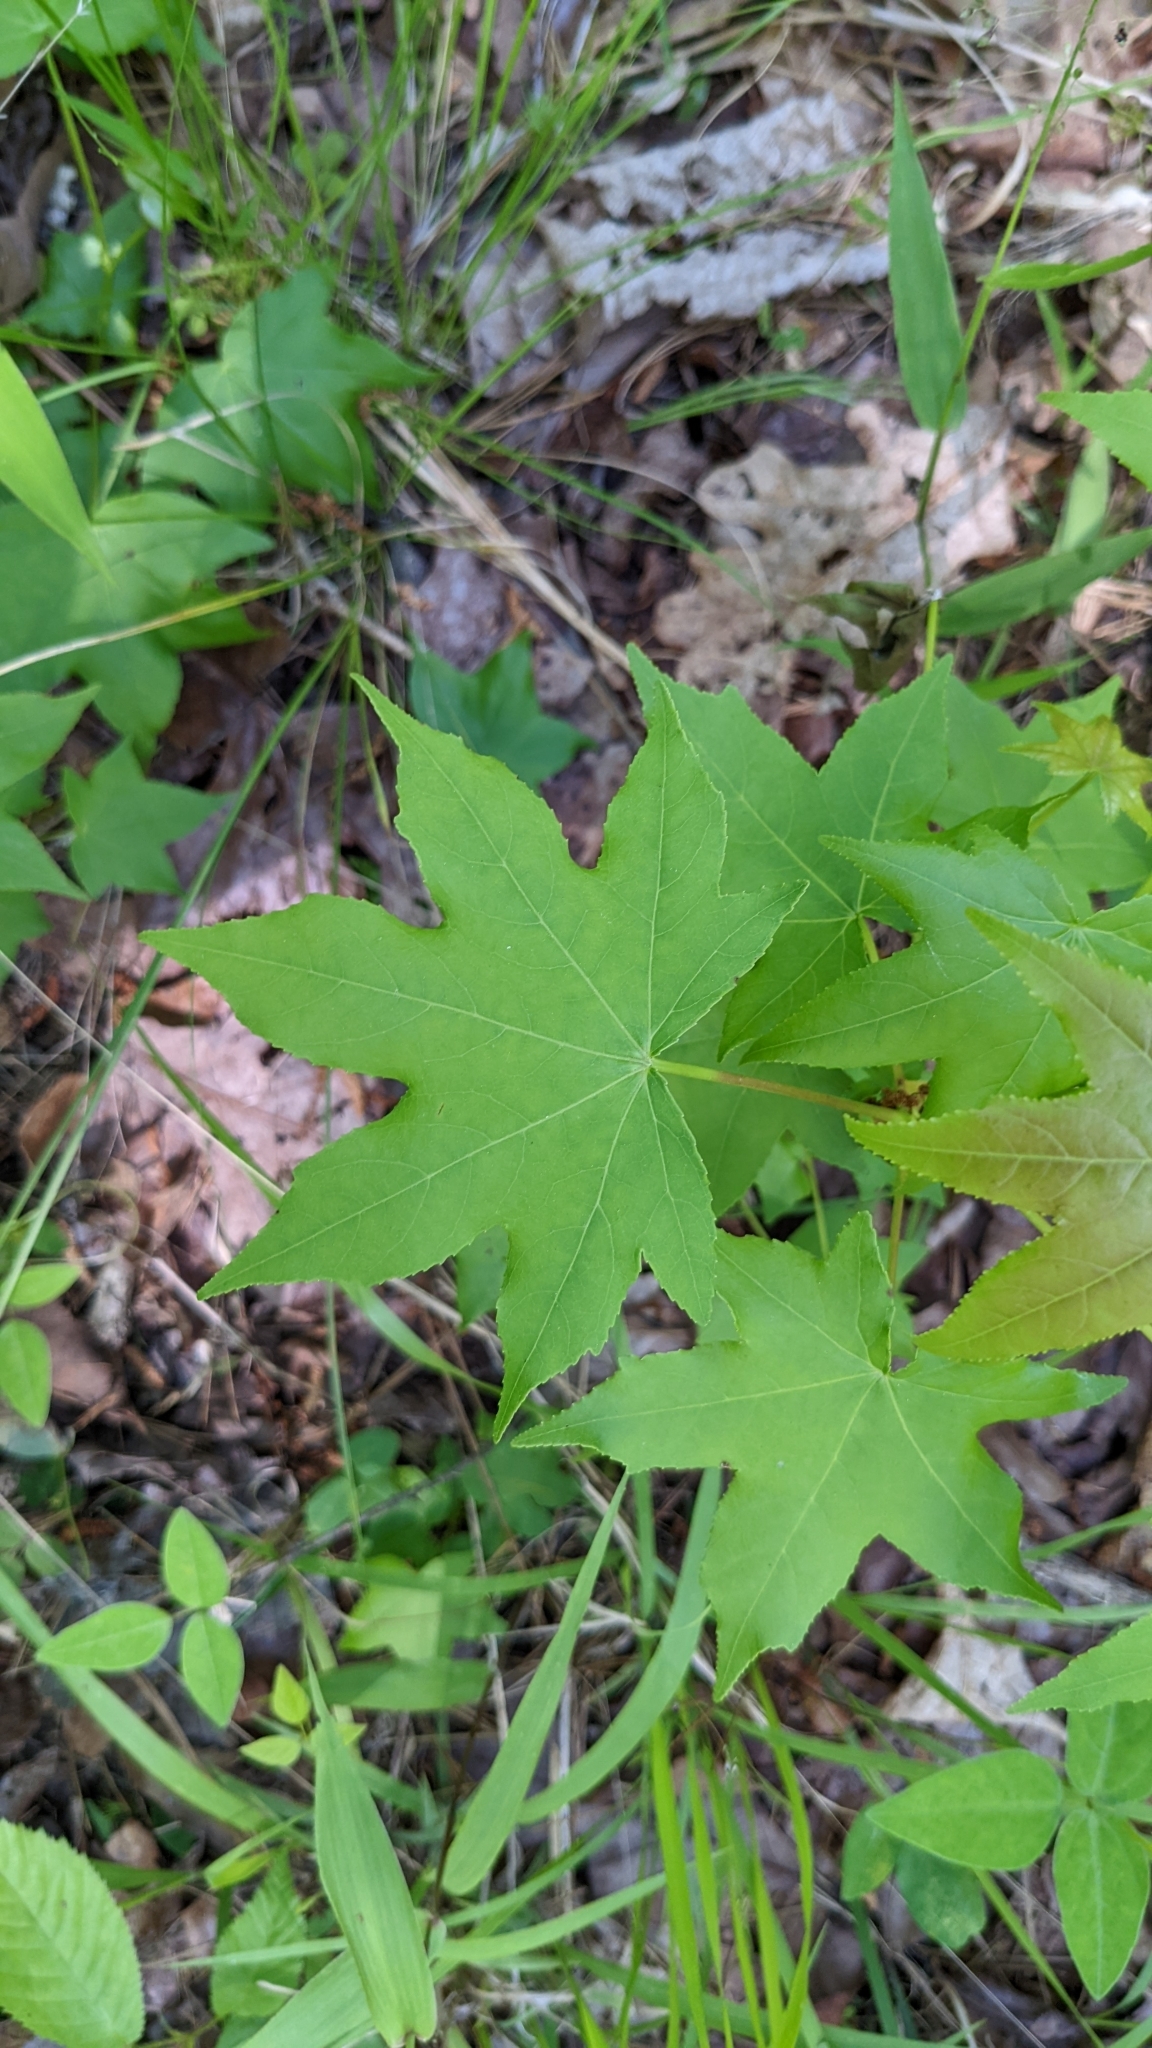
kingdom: Plantae
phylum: Tracheophyta
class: Magnoliopsida
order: Saxifragales
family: Altingiaceae
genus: Liquidambar
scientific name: Liquidambar styraciflua
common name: Sweet gum
